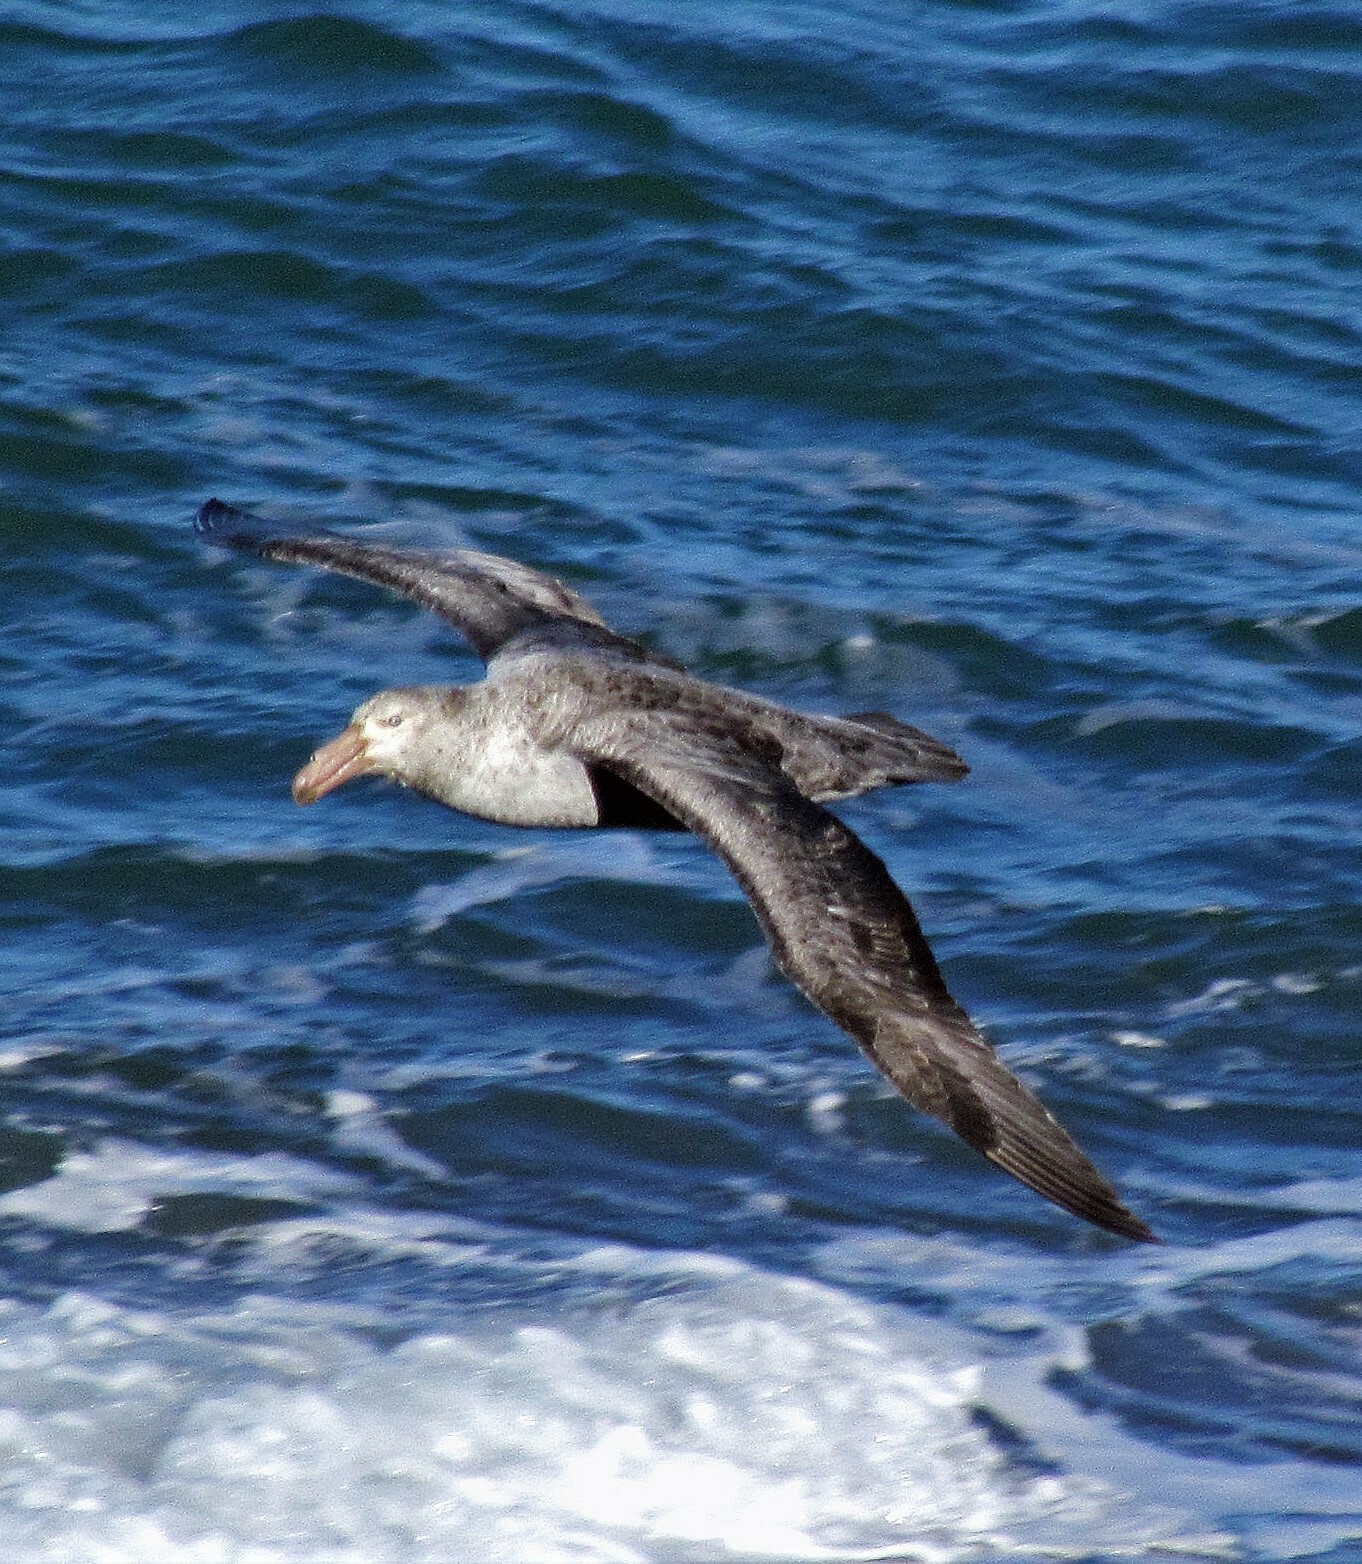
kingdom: Animalia
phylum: Chordata
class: Aves
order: Procellariiformes
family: Procellariidae
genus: Macronectes
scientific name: Macronectes halli
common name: Northern giant petrel
